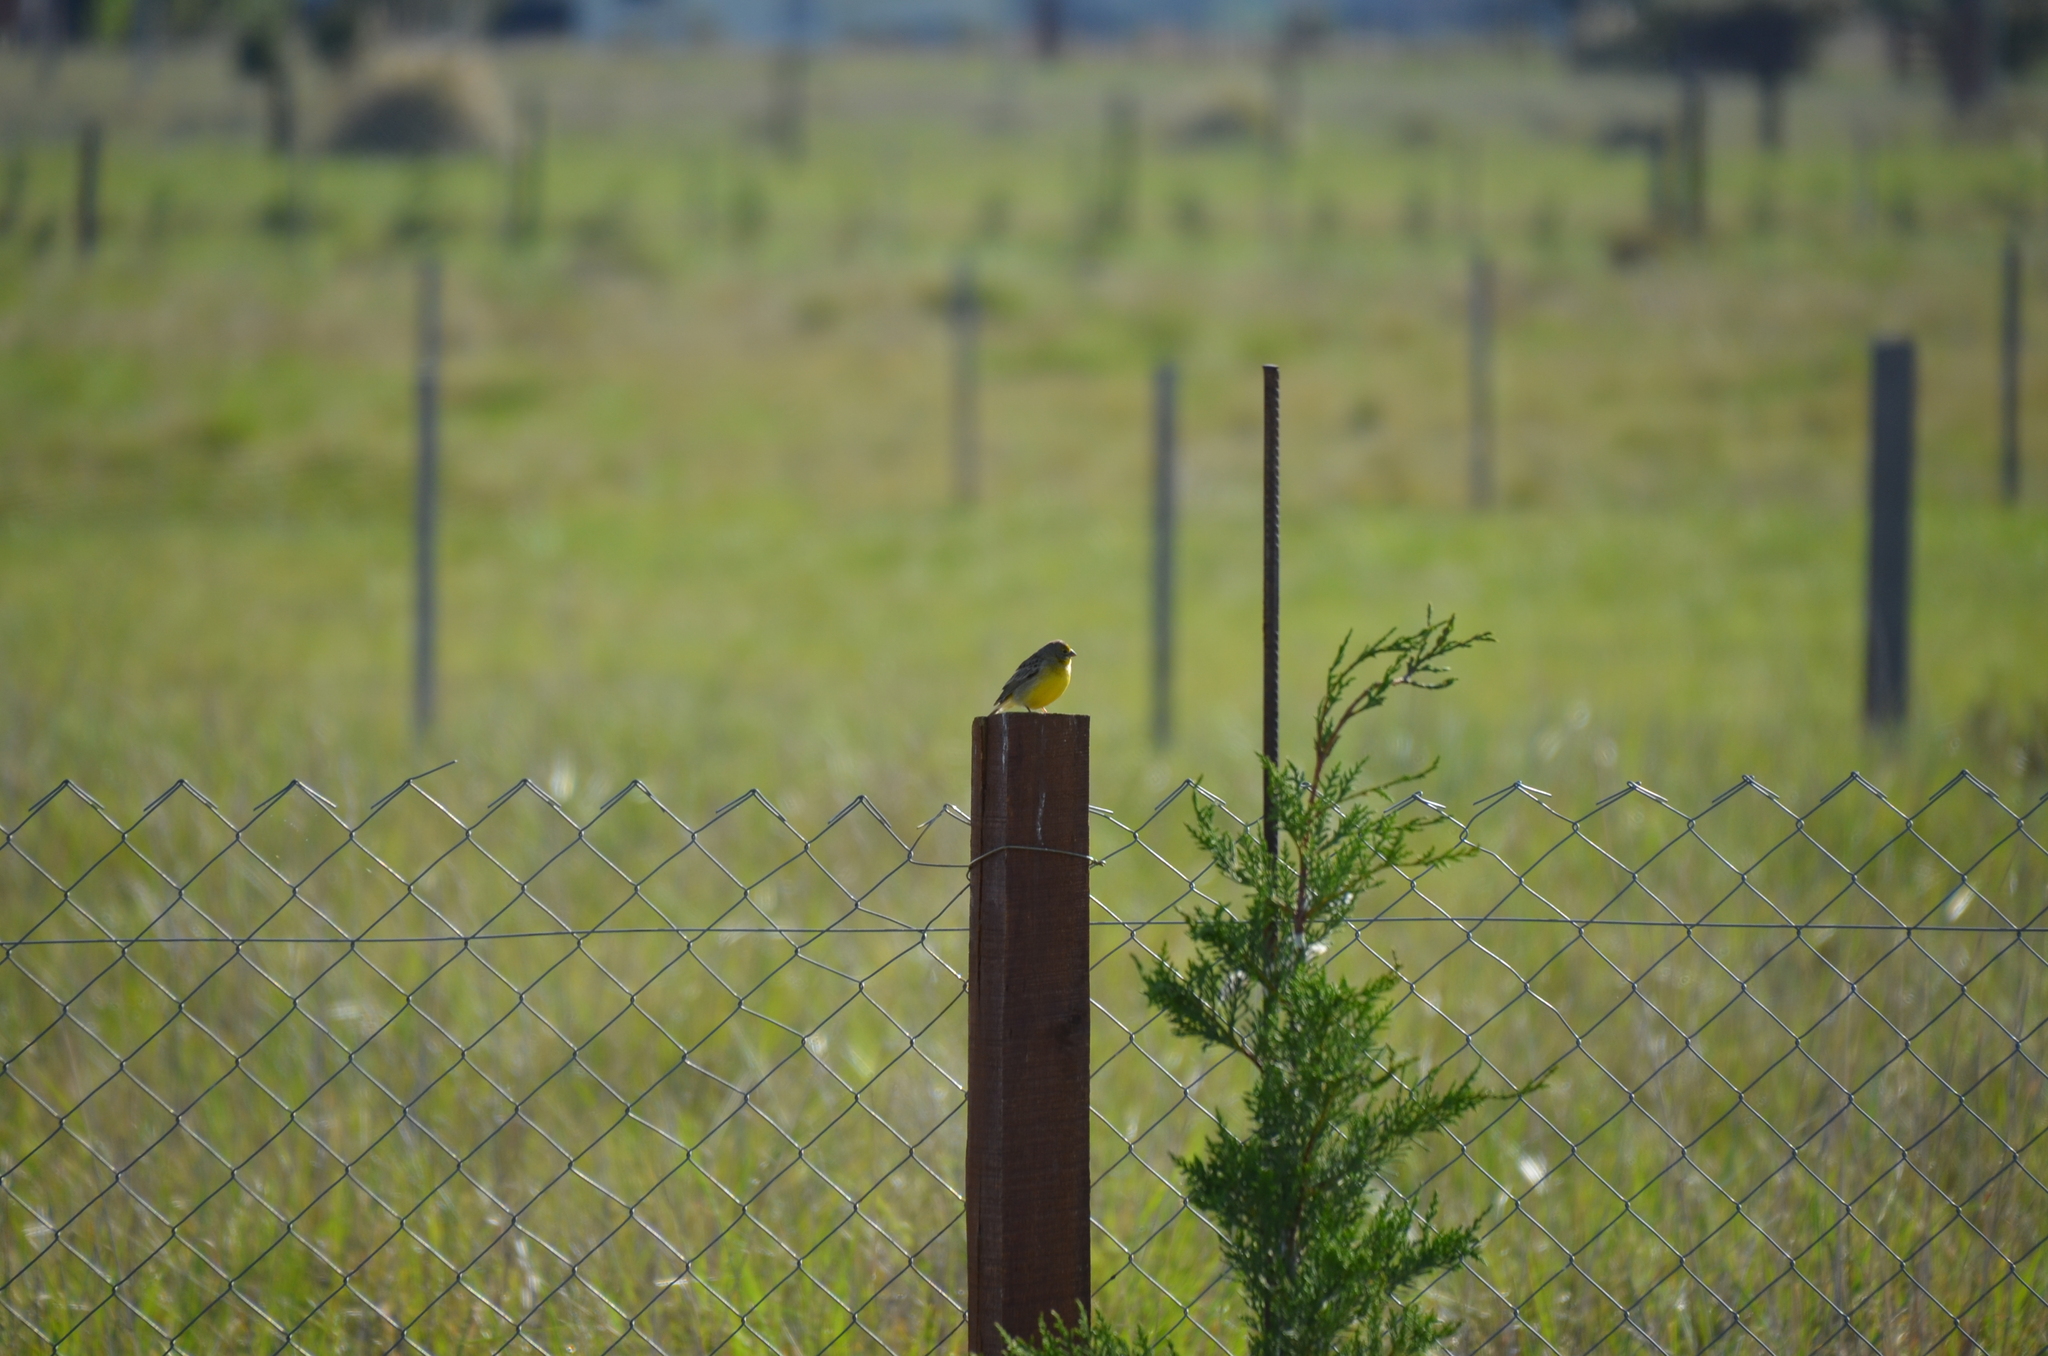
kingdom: Animalia
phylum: Chordata
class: Aves
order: Passeriformes
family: Thraupidae
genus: Sicalis
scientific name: Sicalis luteola
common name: Grassland yellow-finch
